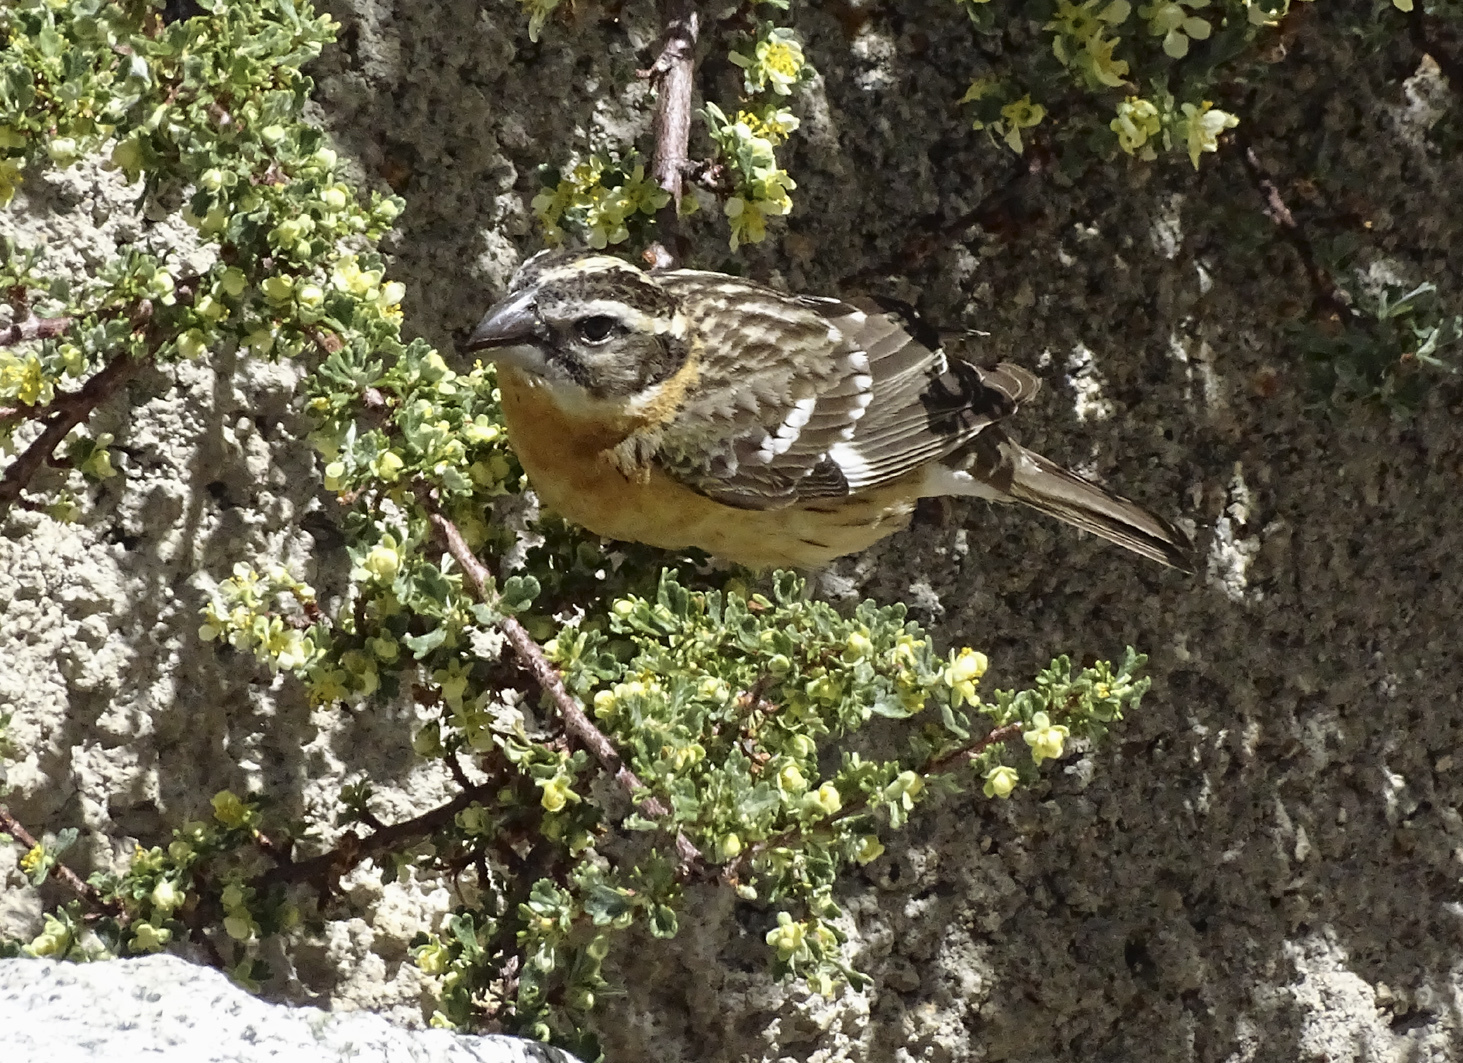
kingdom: Animalia
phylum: Chordata
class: Aves
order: Passeriformes
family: Cardinalidae
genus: Pheucticus
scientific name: Pheucticus melanocephalus
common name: Black-headed grosbeak
